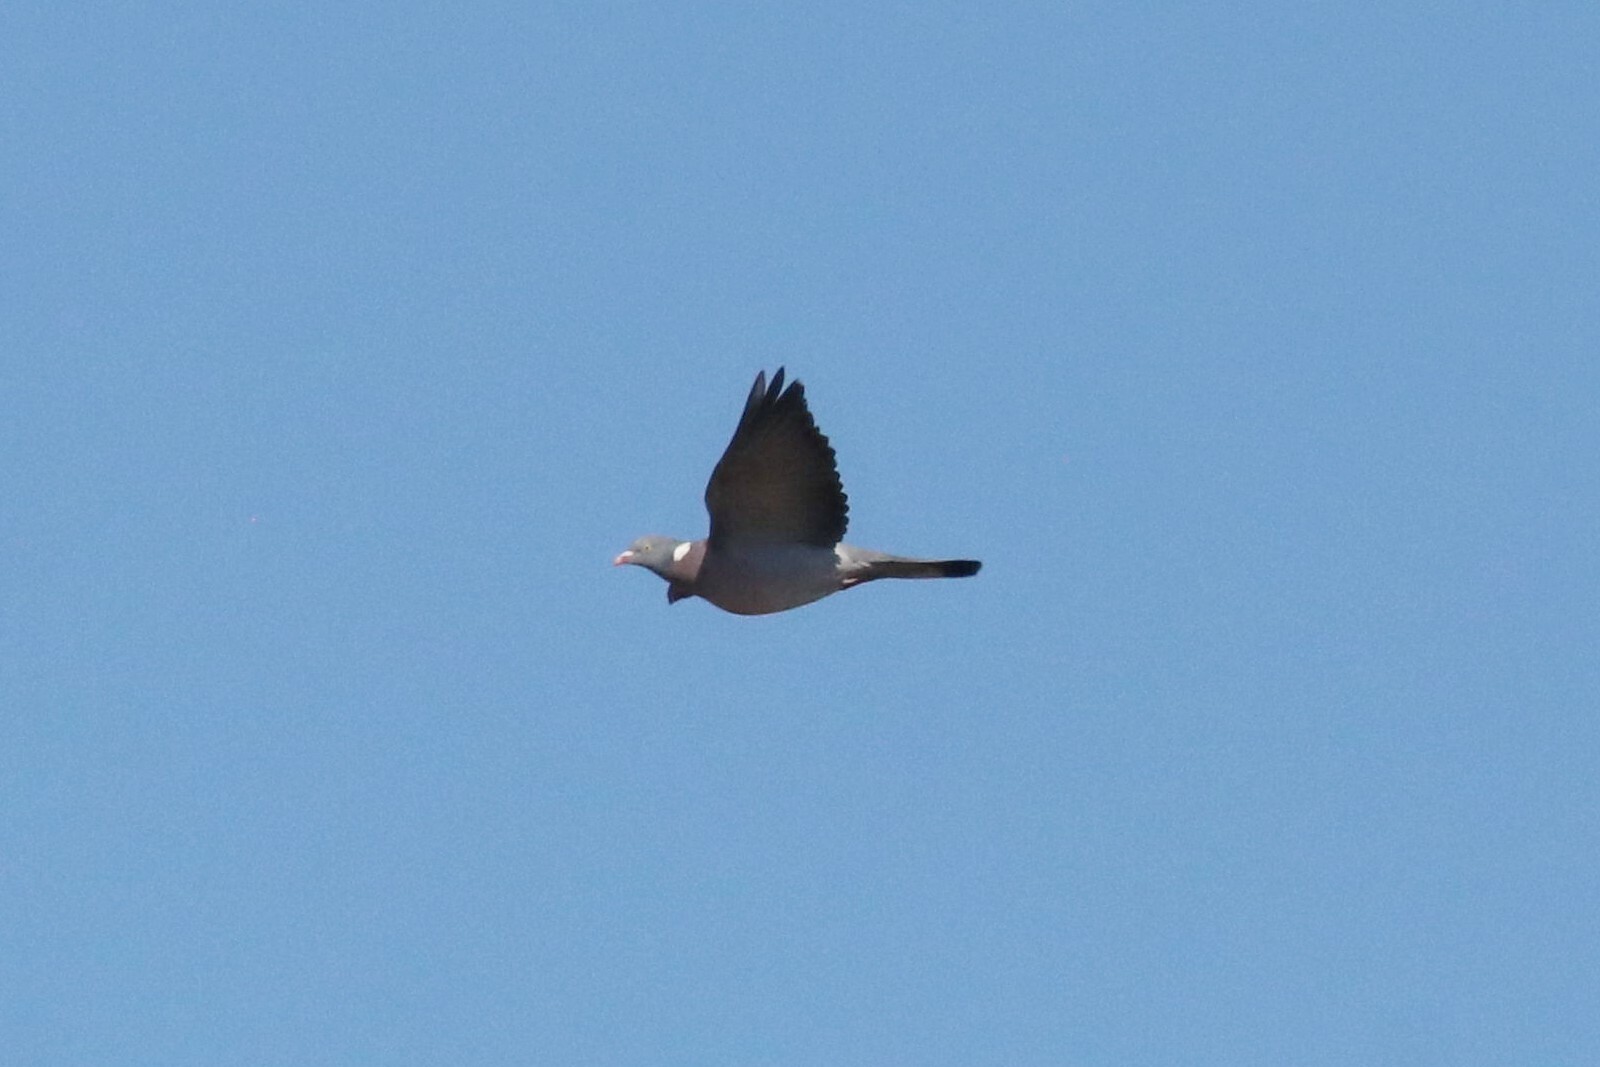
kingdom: Animalia
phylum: Chordata
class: Aves
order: Columbiformes
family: Columbidae
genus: Columba
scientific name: Columba palumbus
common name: Common wood pigeon
